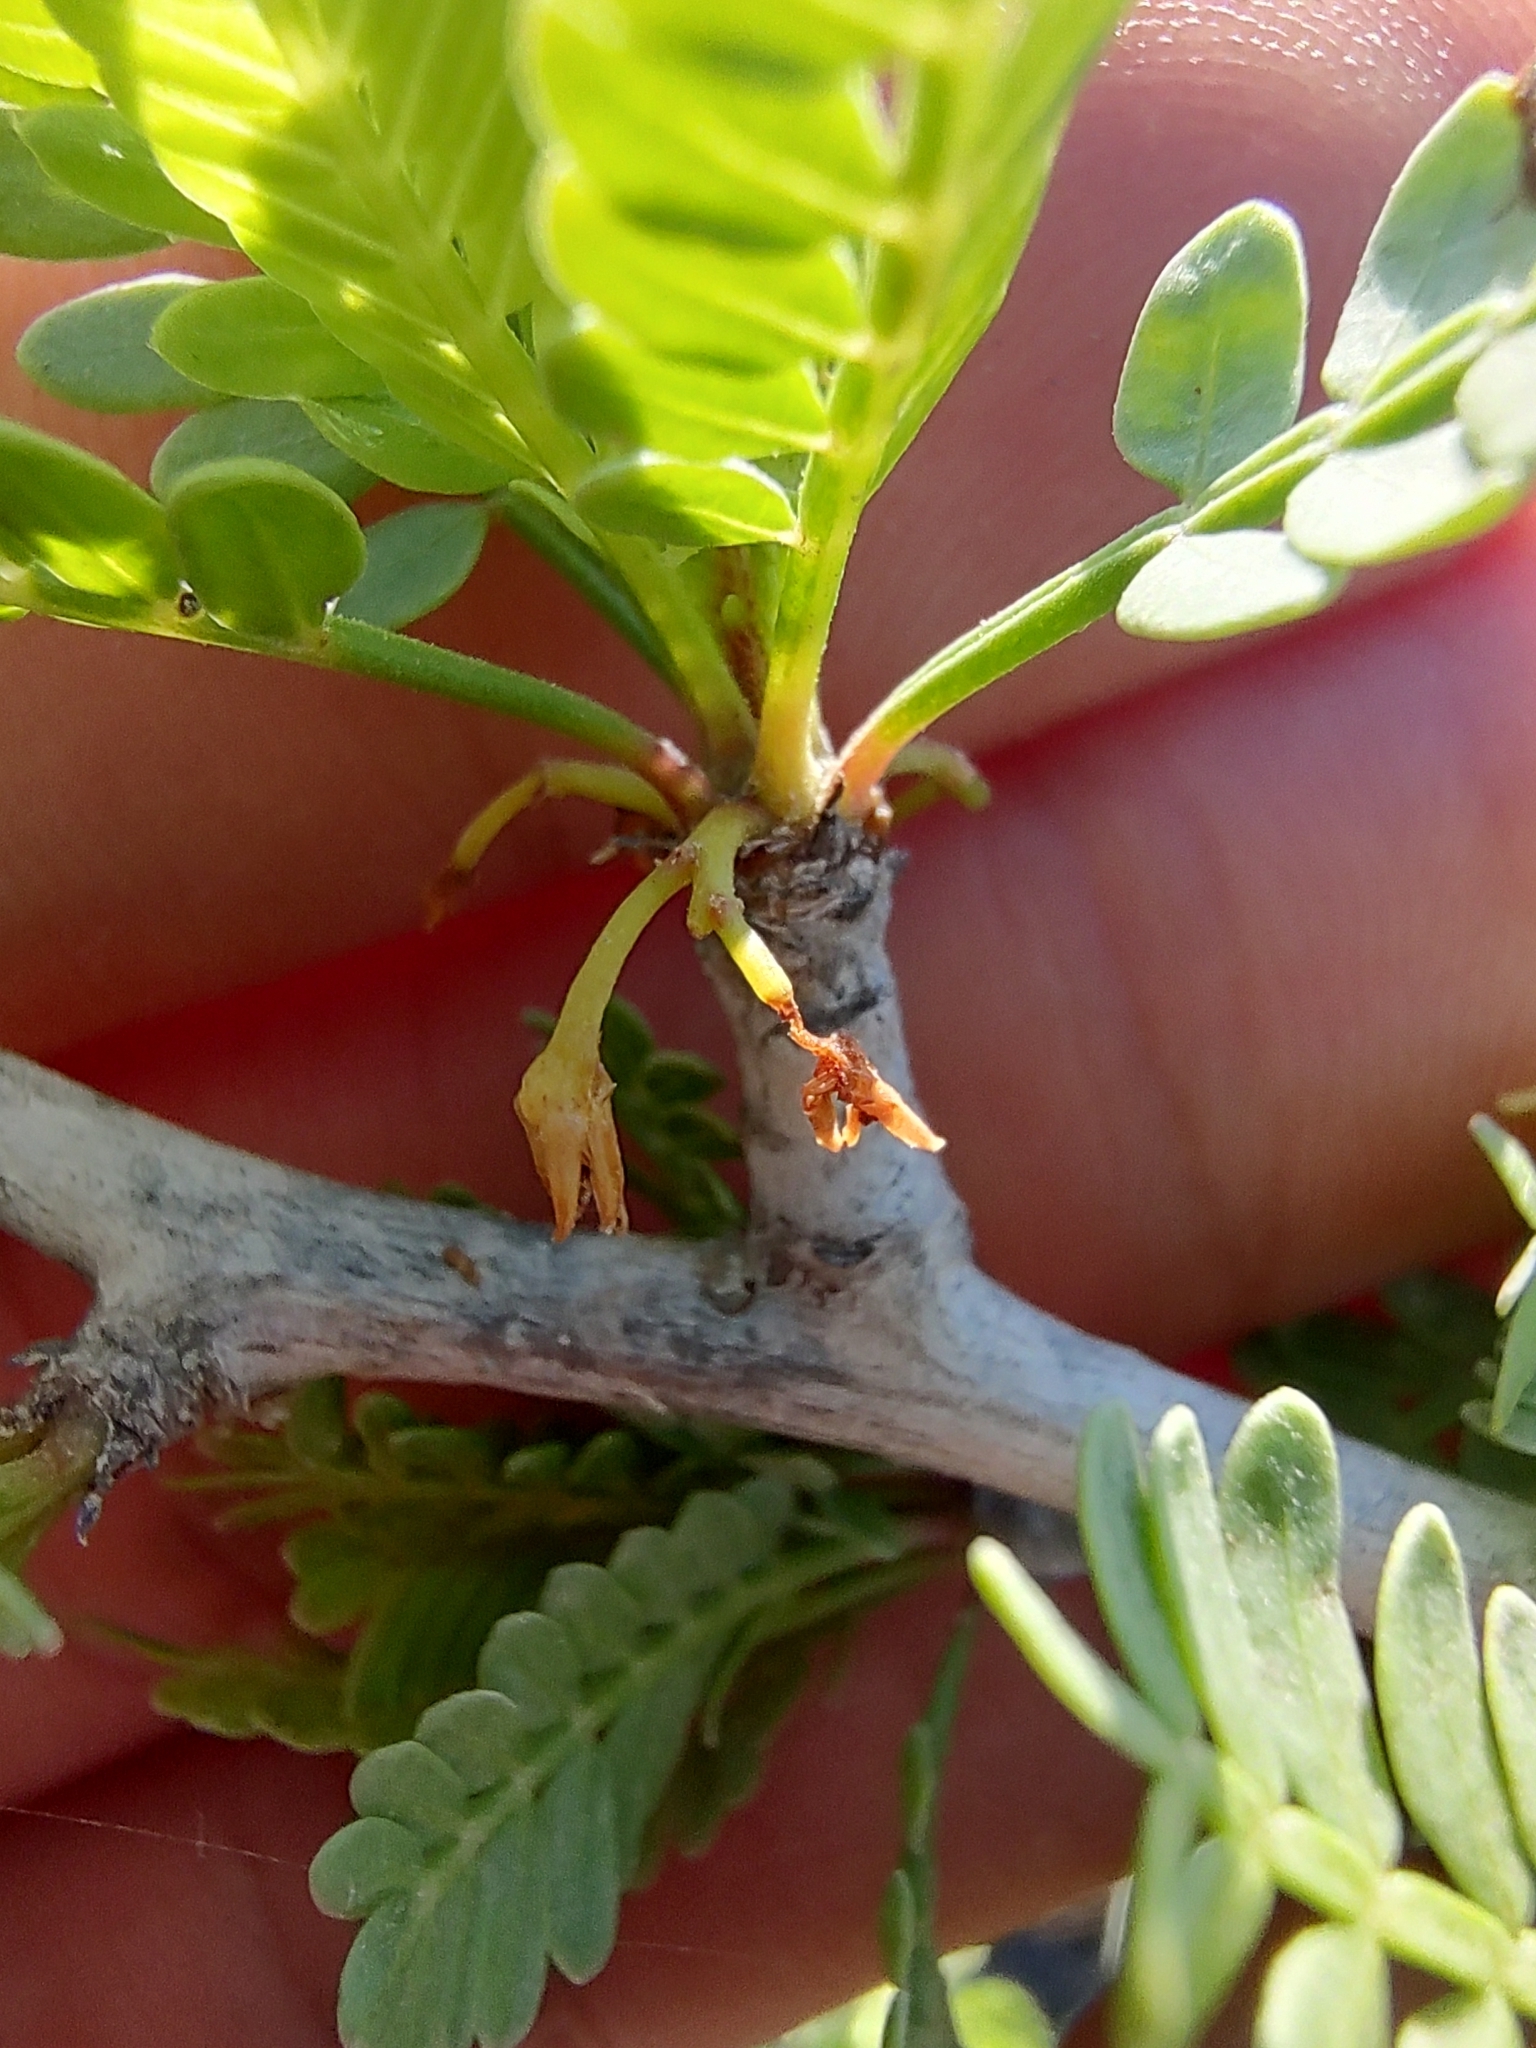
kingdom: Plantae
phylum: Tracheophyta
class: Magnoliopsida
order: Sapindales
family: Burseraceae
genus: Bursera
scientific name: Bursera microphylla
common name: Elephant tree
